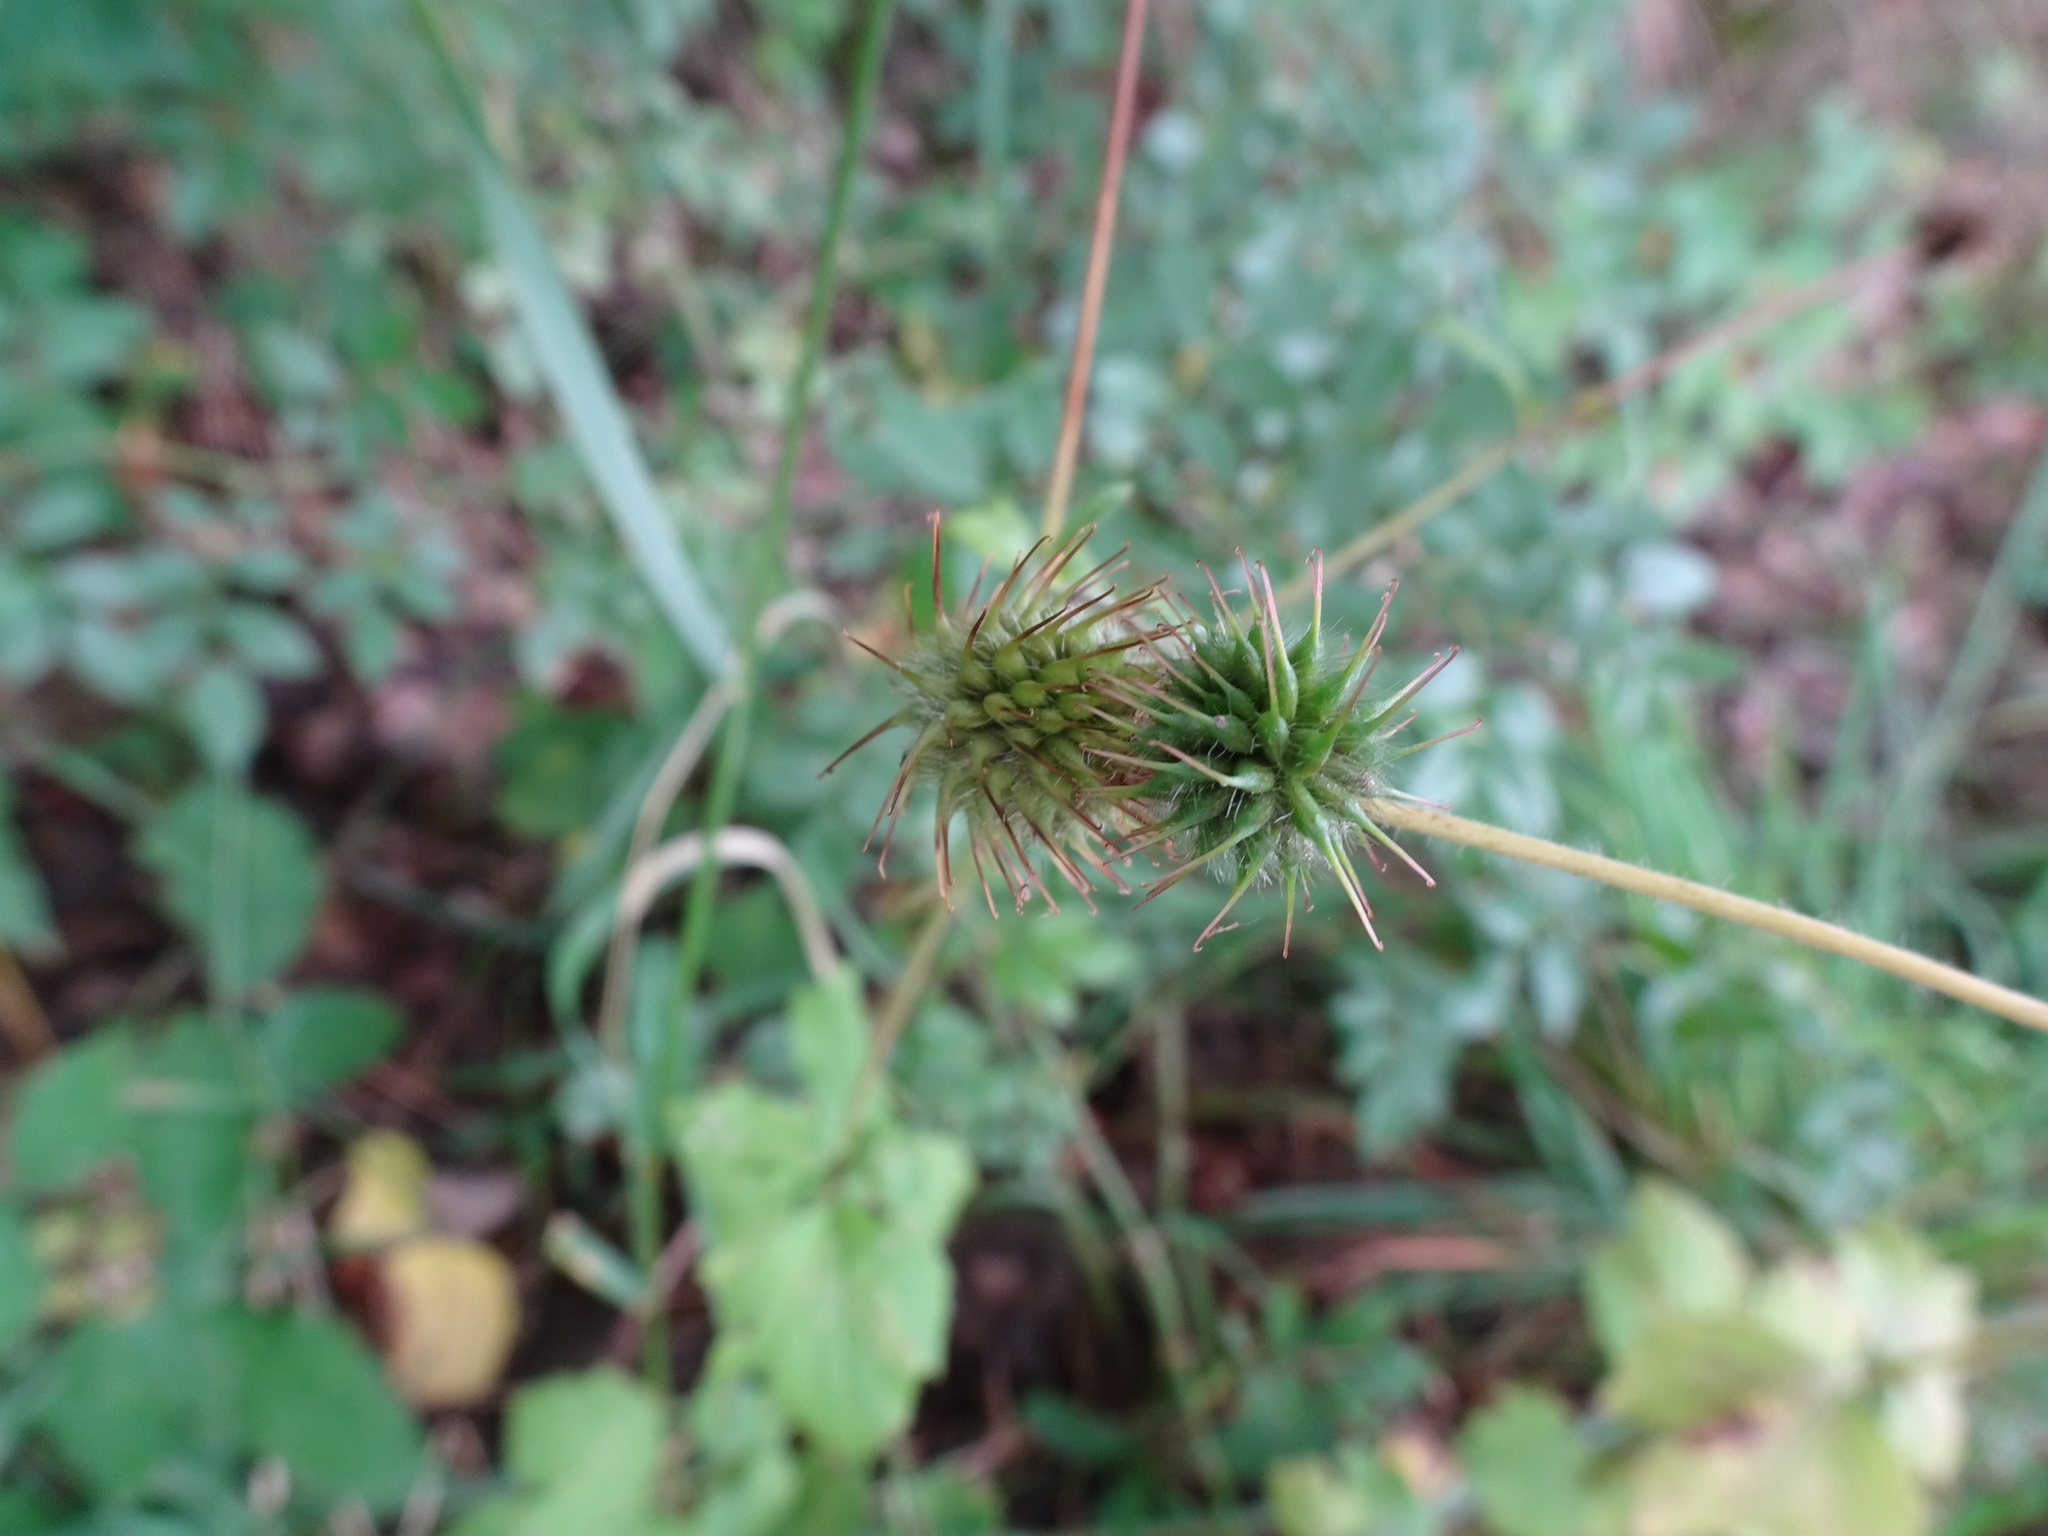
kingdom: Plantae
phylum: Tracheophyta
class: Magnoliopsida
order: Rosales
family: Rosaceae
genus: Geum
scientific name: Geum urbanum
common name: Wood avens
